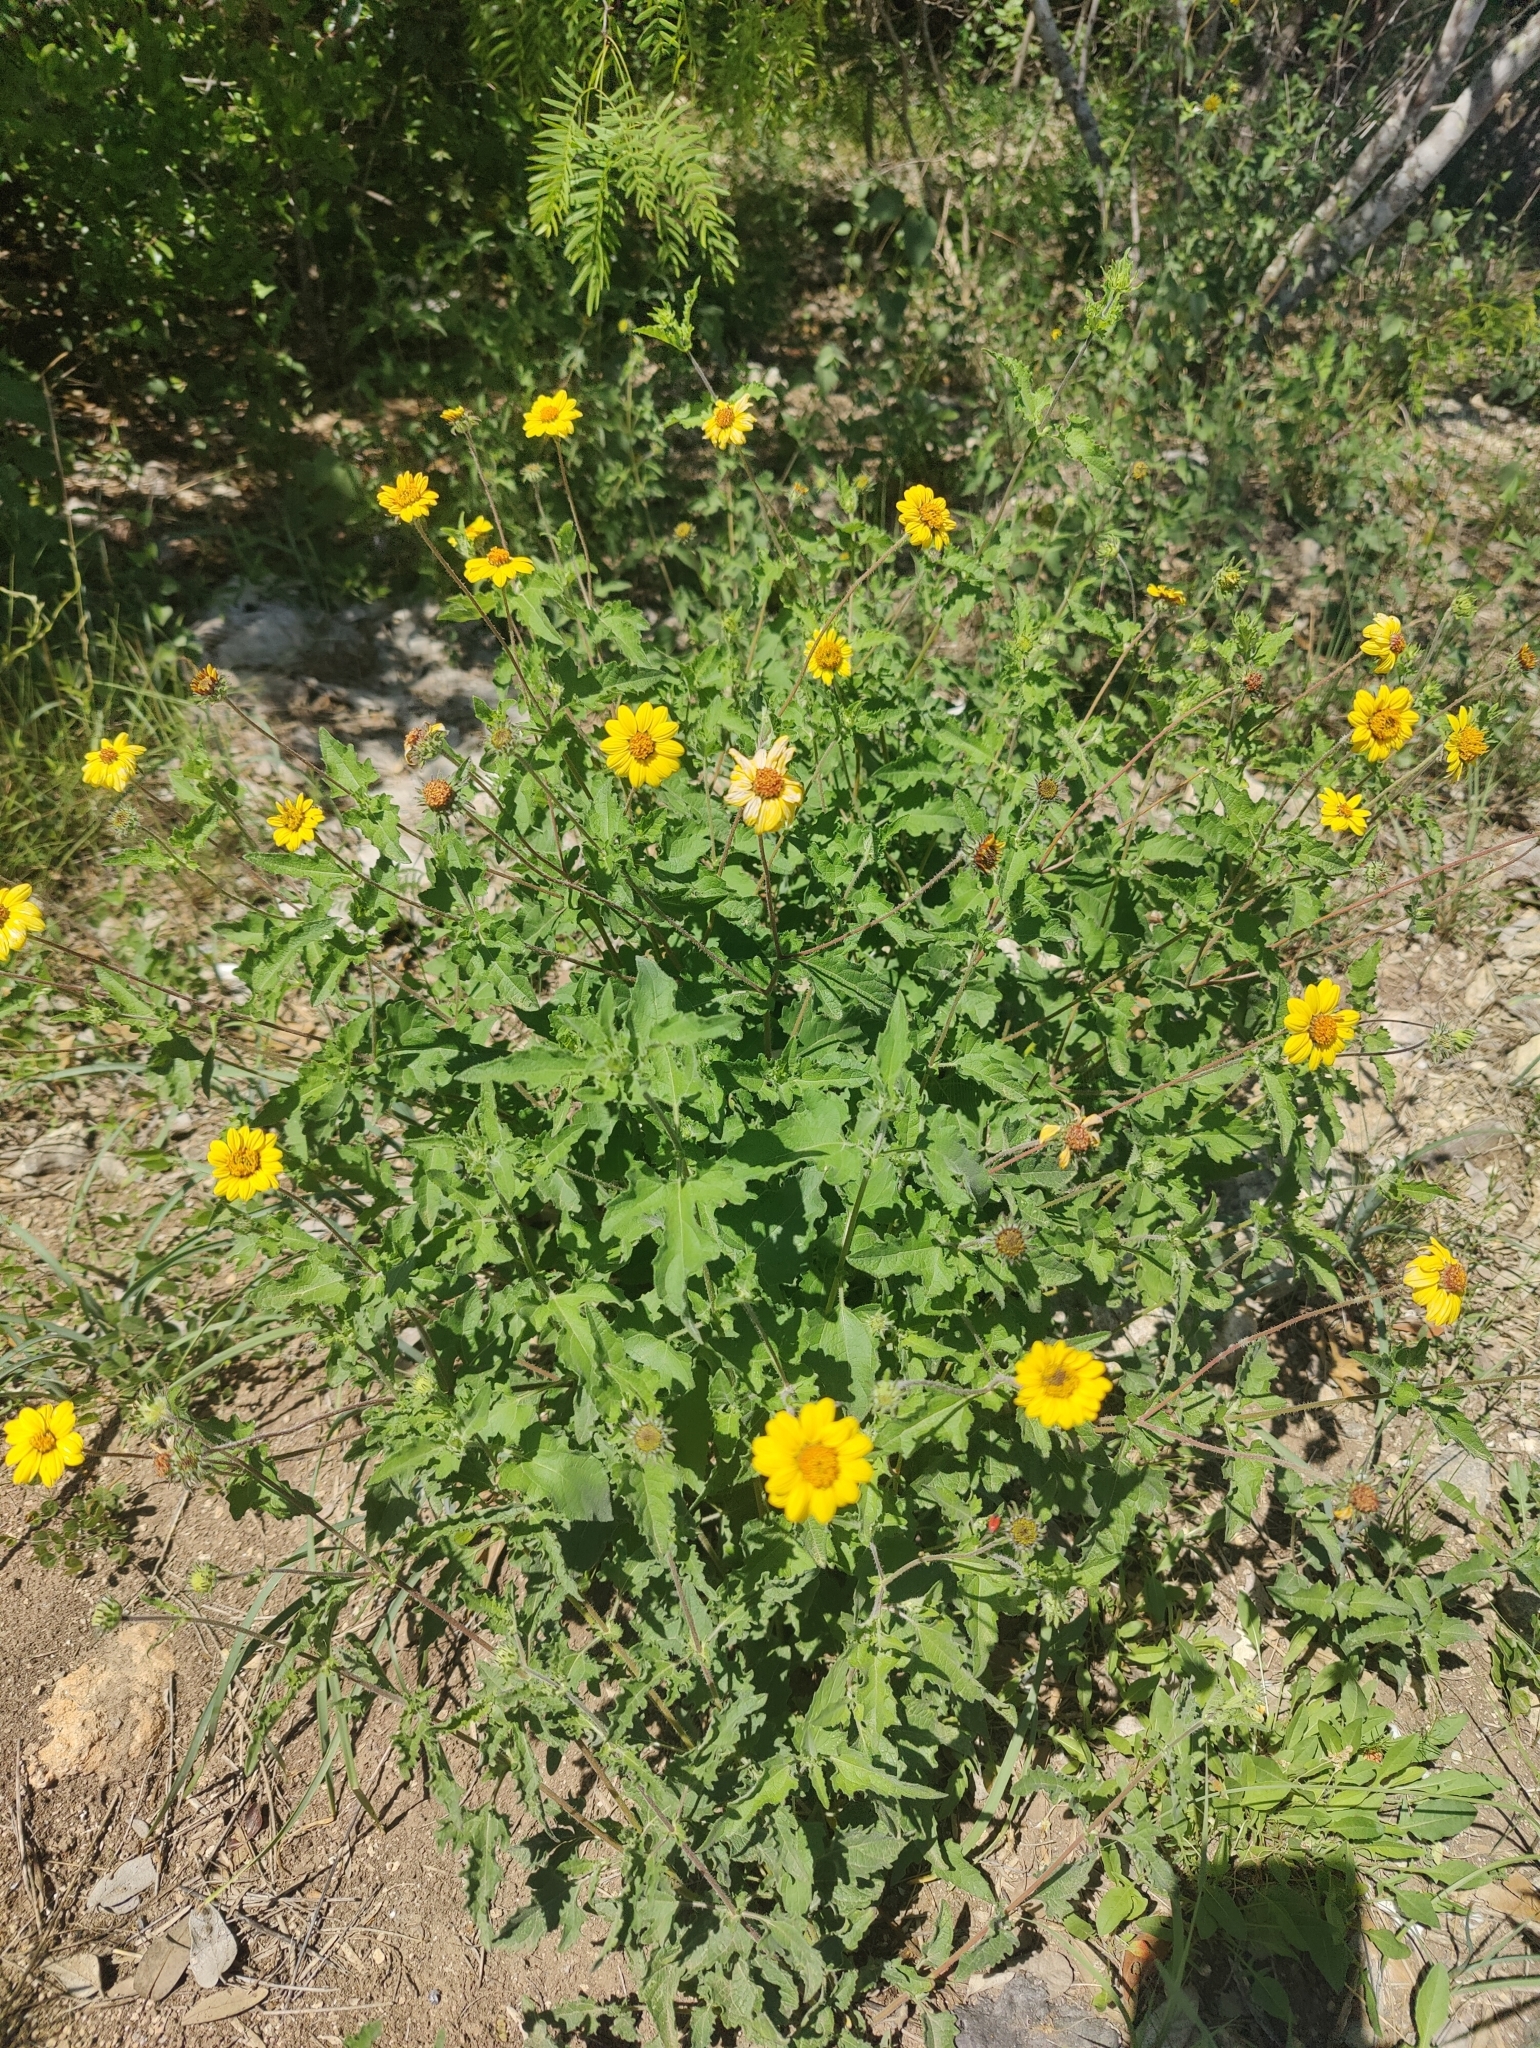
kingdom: Plantae
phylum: Tracheophyta
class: Magnoliopsida
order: Asterales
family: Asteraceae
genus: Simsia
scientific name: Simsia calva
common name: Awnless bush-sunflower
